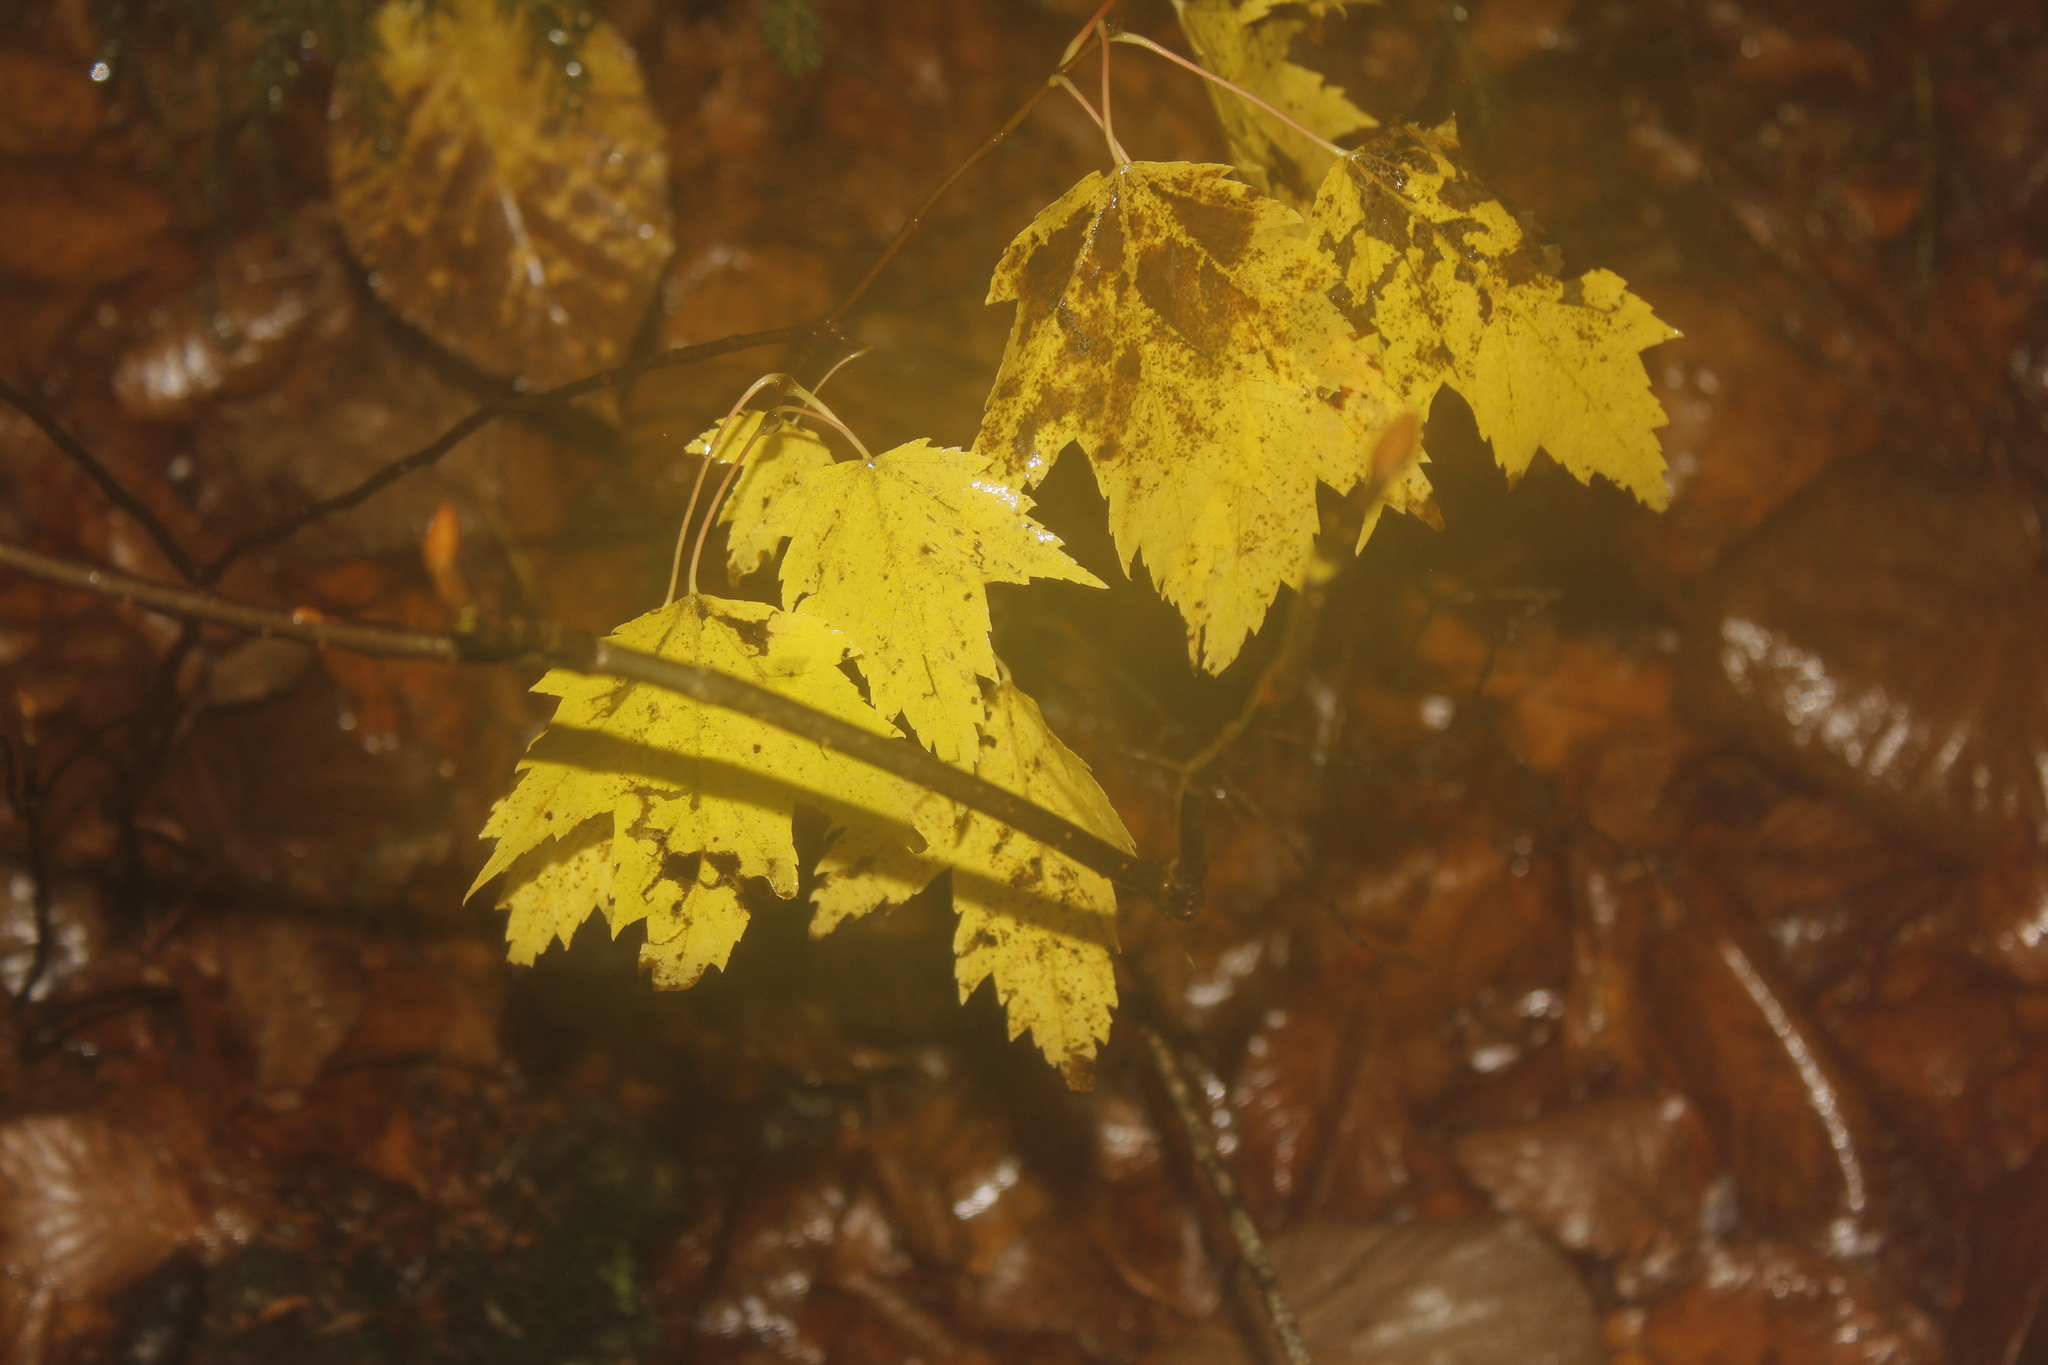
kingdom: Plantae
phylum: Tracheophyta
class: Magnoliopsida
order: Sapindales
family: Sapindaceae
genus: Acer
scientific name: Acer rubrum
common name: Red maple
